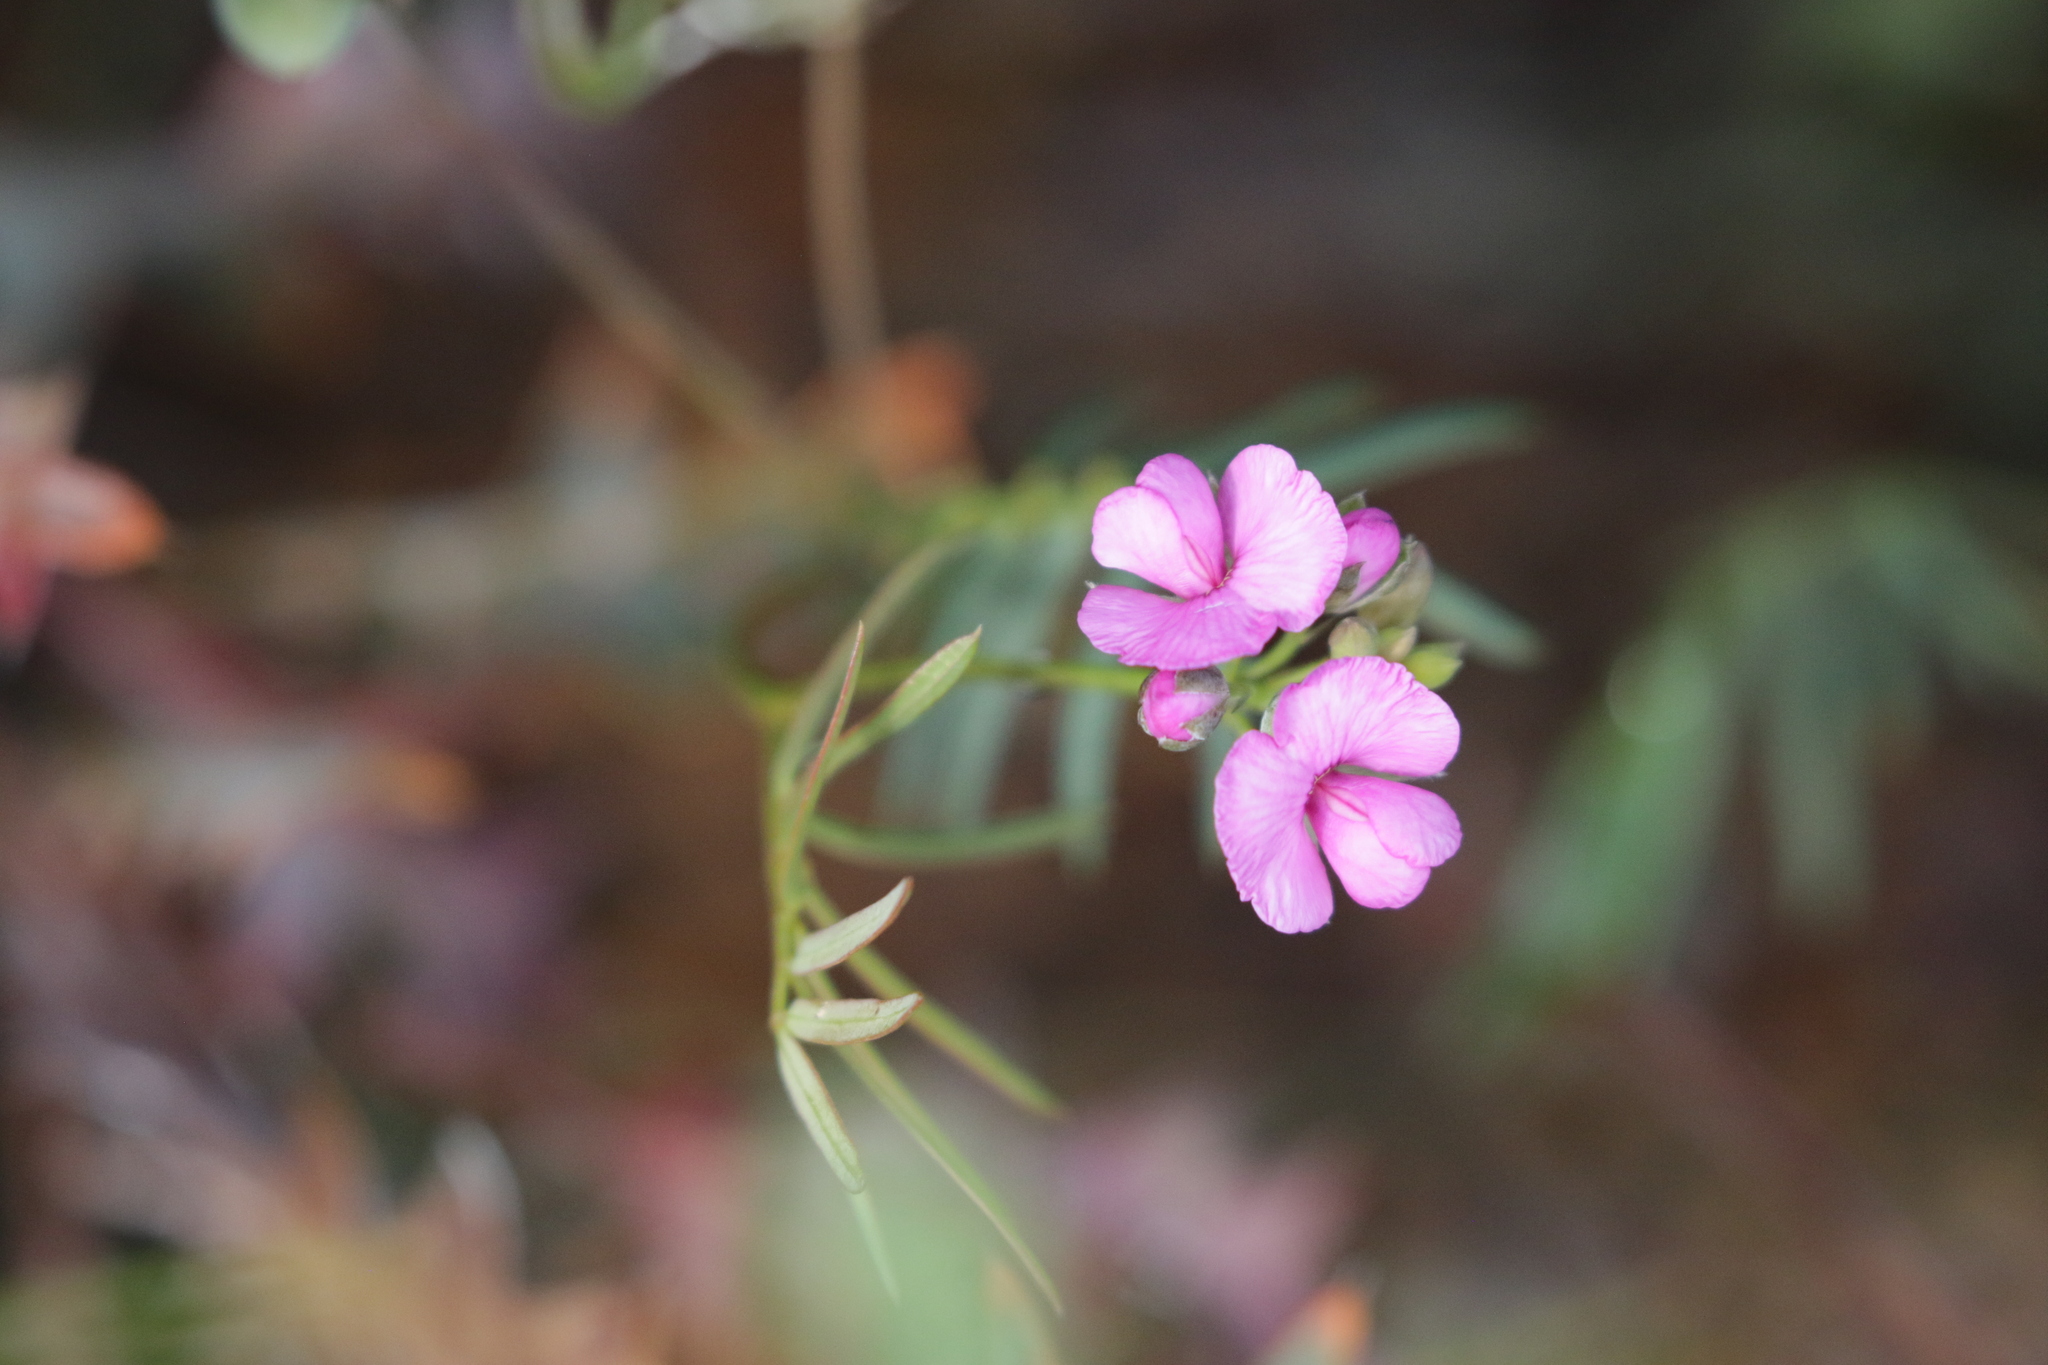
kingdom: Plantae
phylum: Tracheophyta
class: Magnoliopsida
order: Fabales
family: Fabaceae
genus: Gompholobium
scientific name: Gompholobium knightianum
